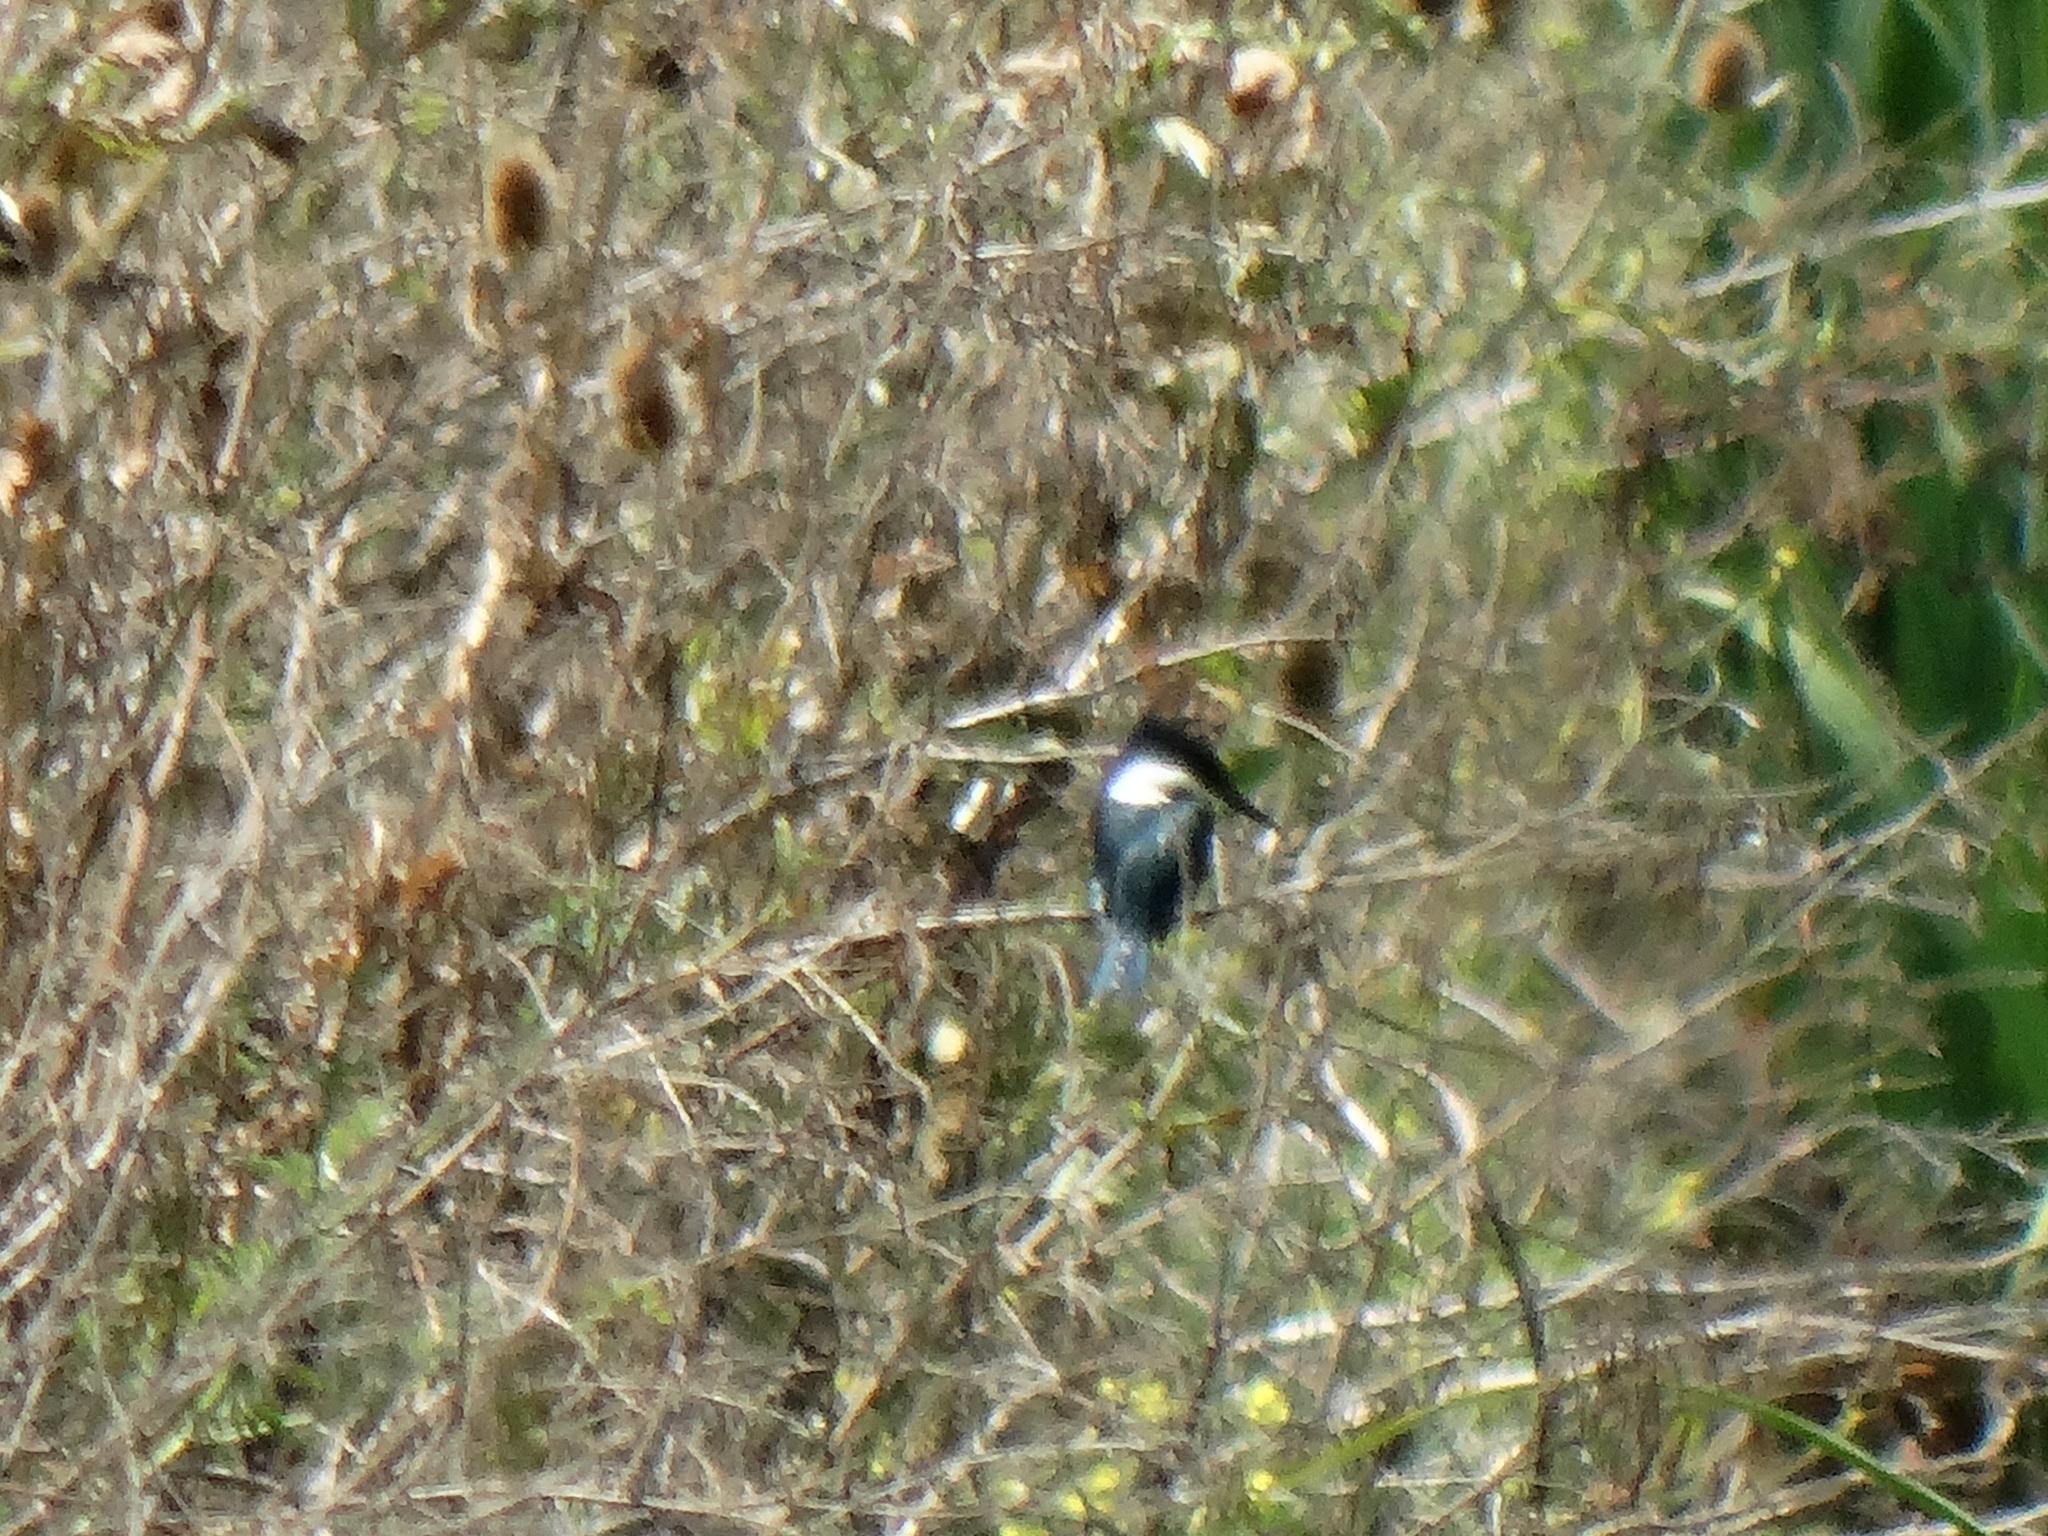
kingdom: Animalia
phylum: Chordata
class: Aves
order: Coraciiformes
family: Alcedinidae
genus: Chloroceryle
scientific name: Chloroceryle americana
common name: Green kingfisher
